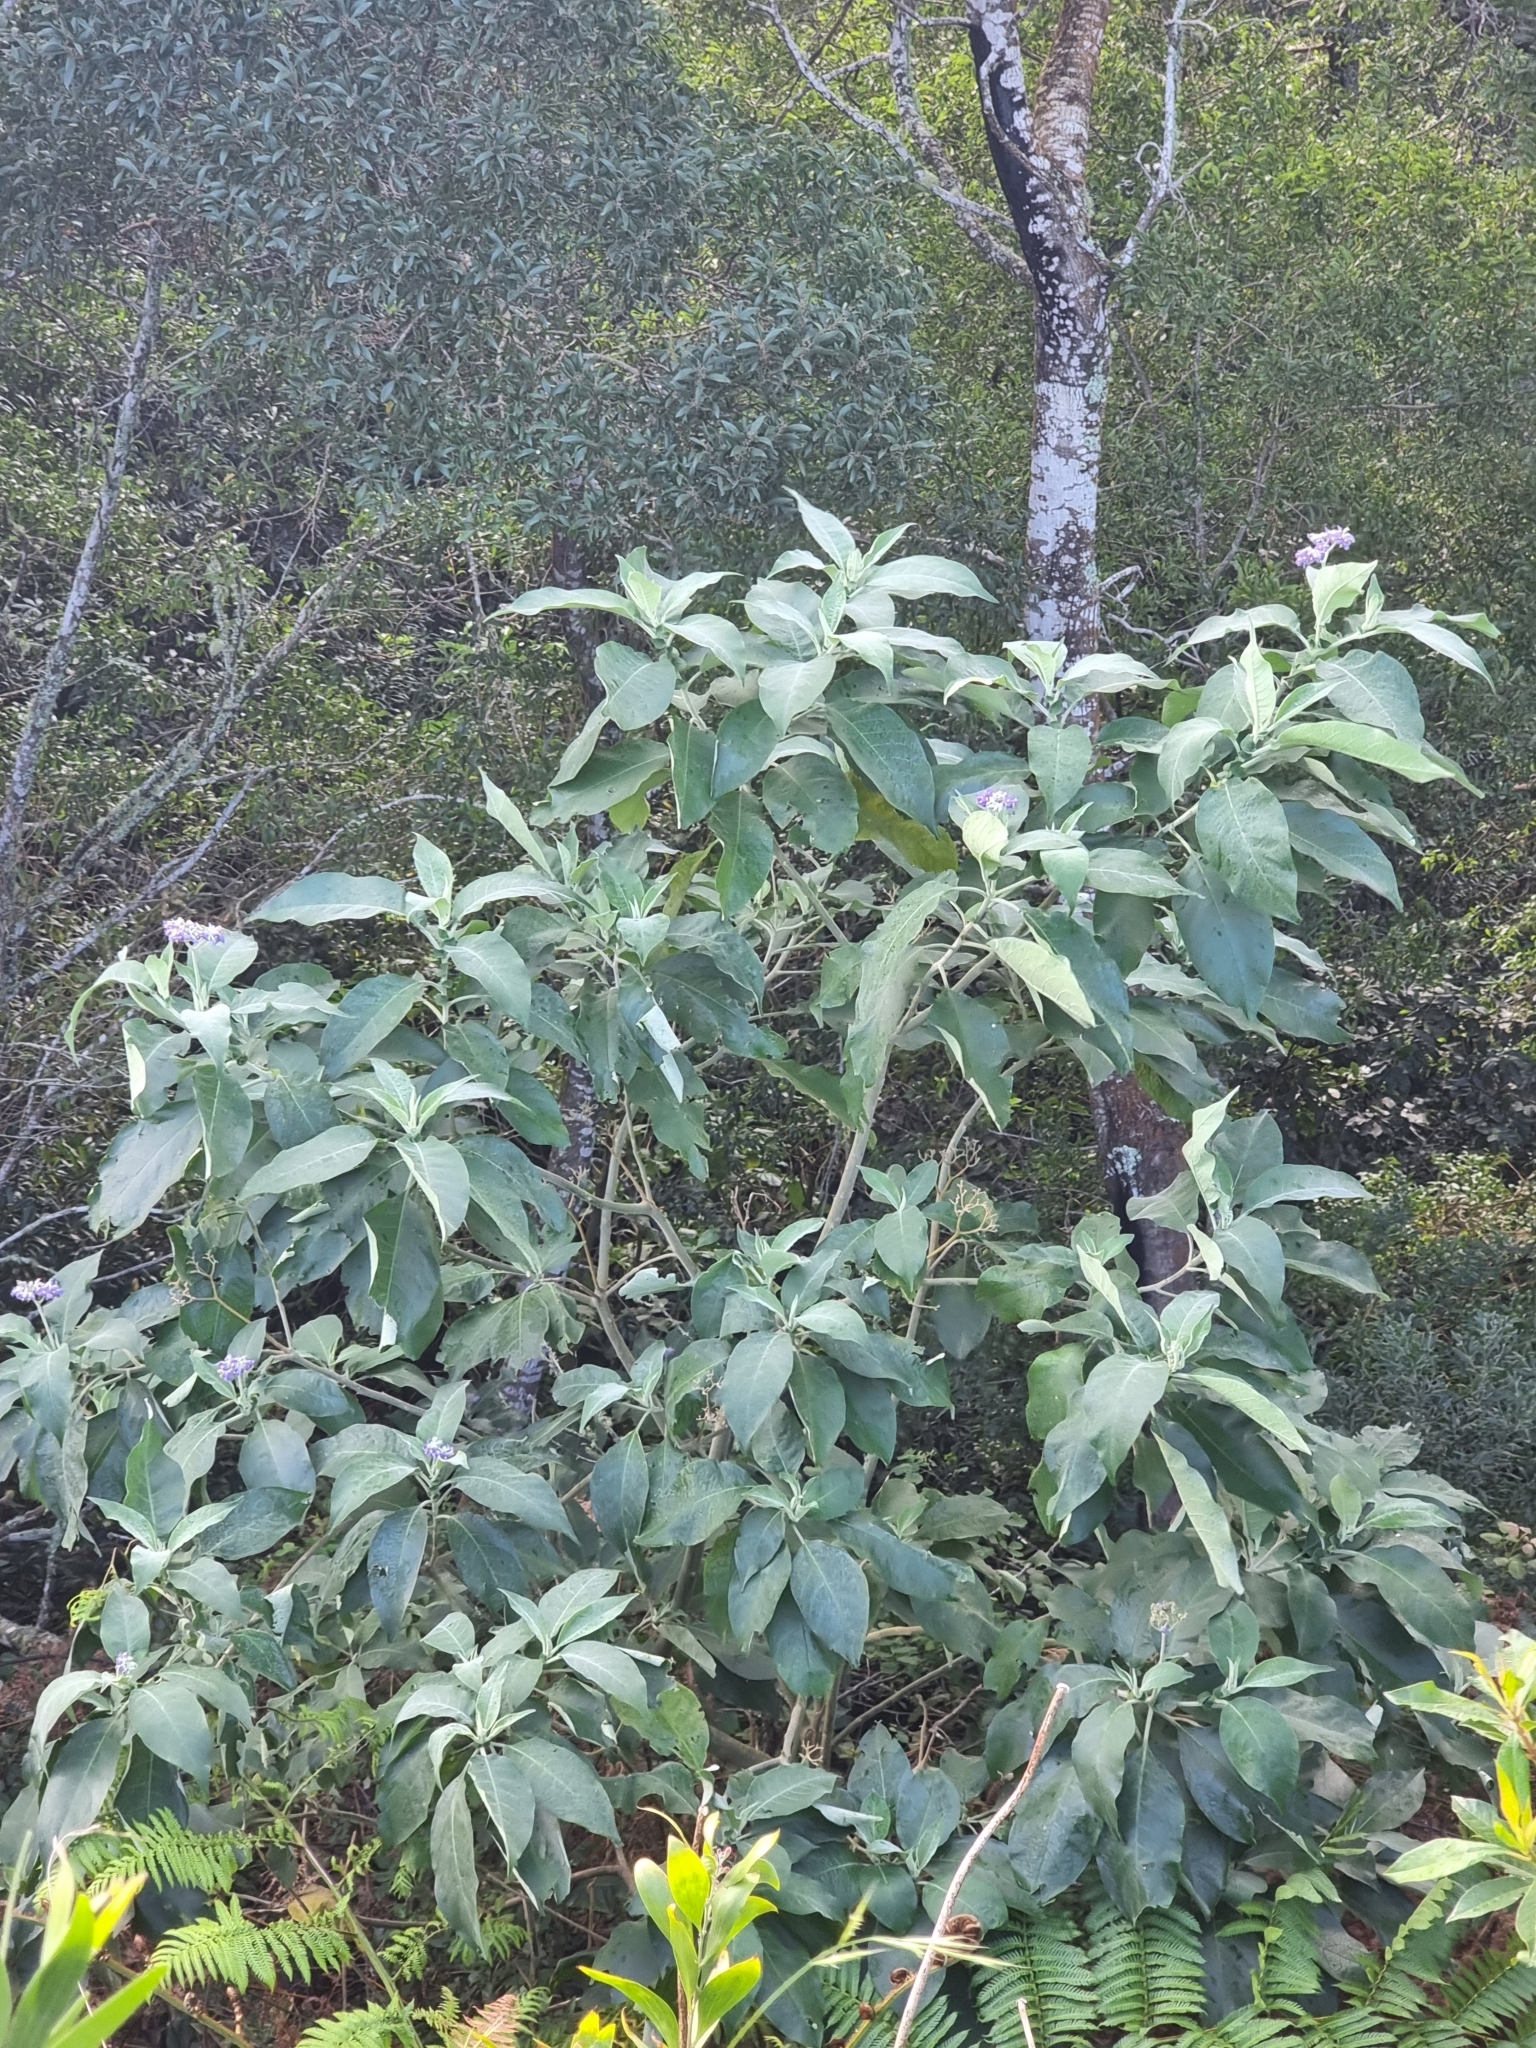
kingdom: Plantae
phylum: Tracheophyta
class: Magnoliopsida
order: Solanales
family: Solanaceae
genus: Solanum
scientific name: Solanum mauritianum
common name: Earleaf nightshade
